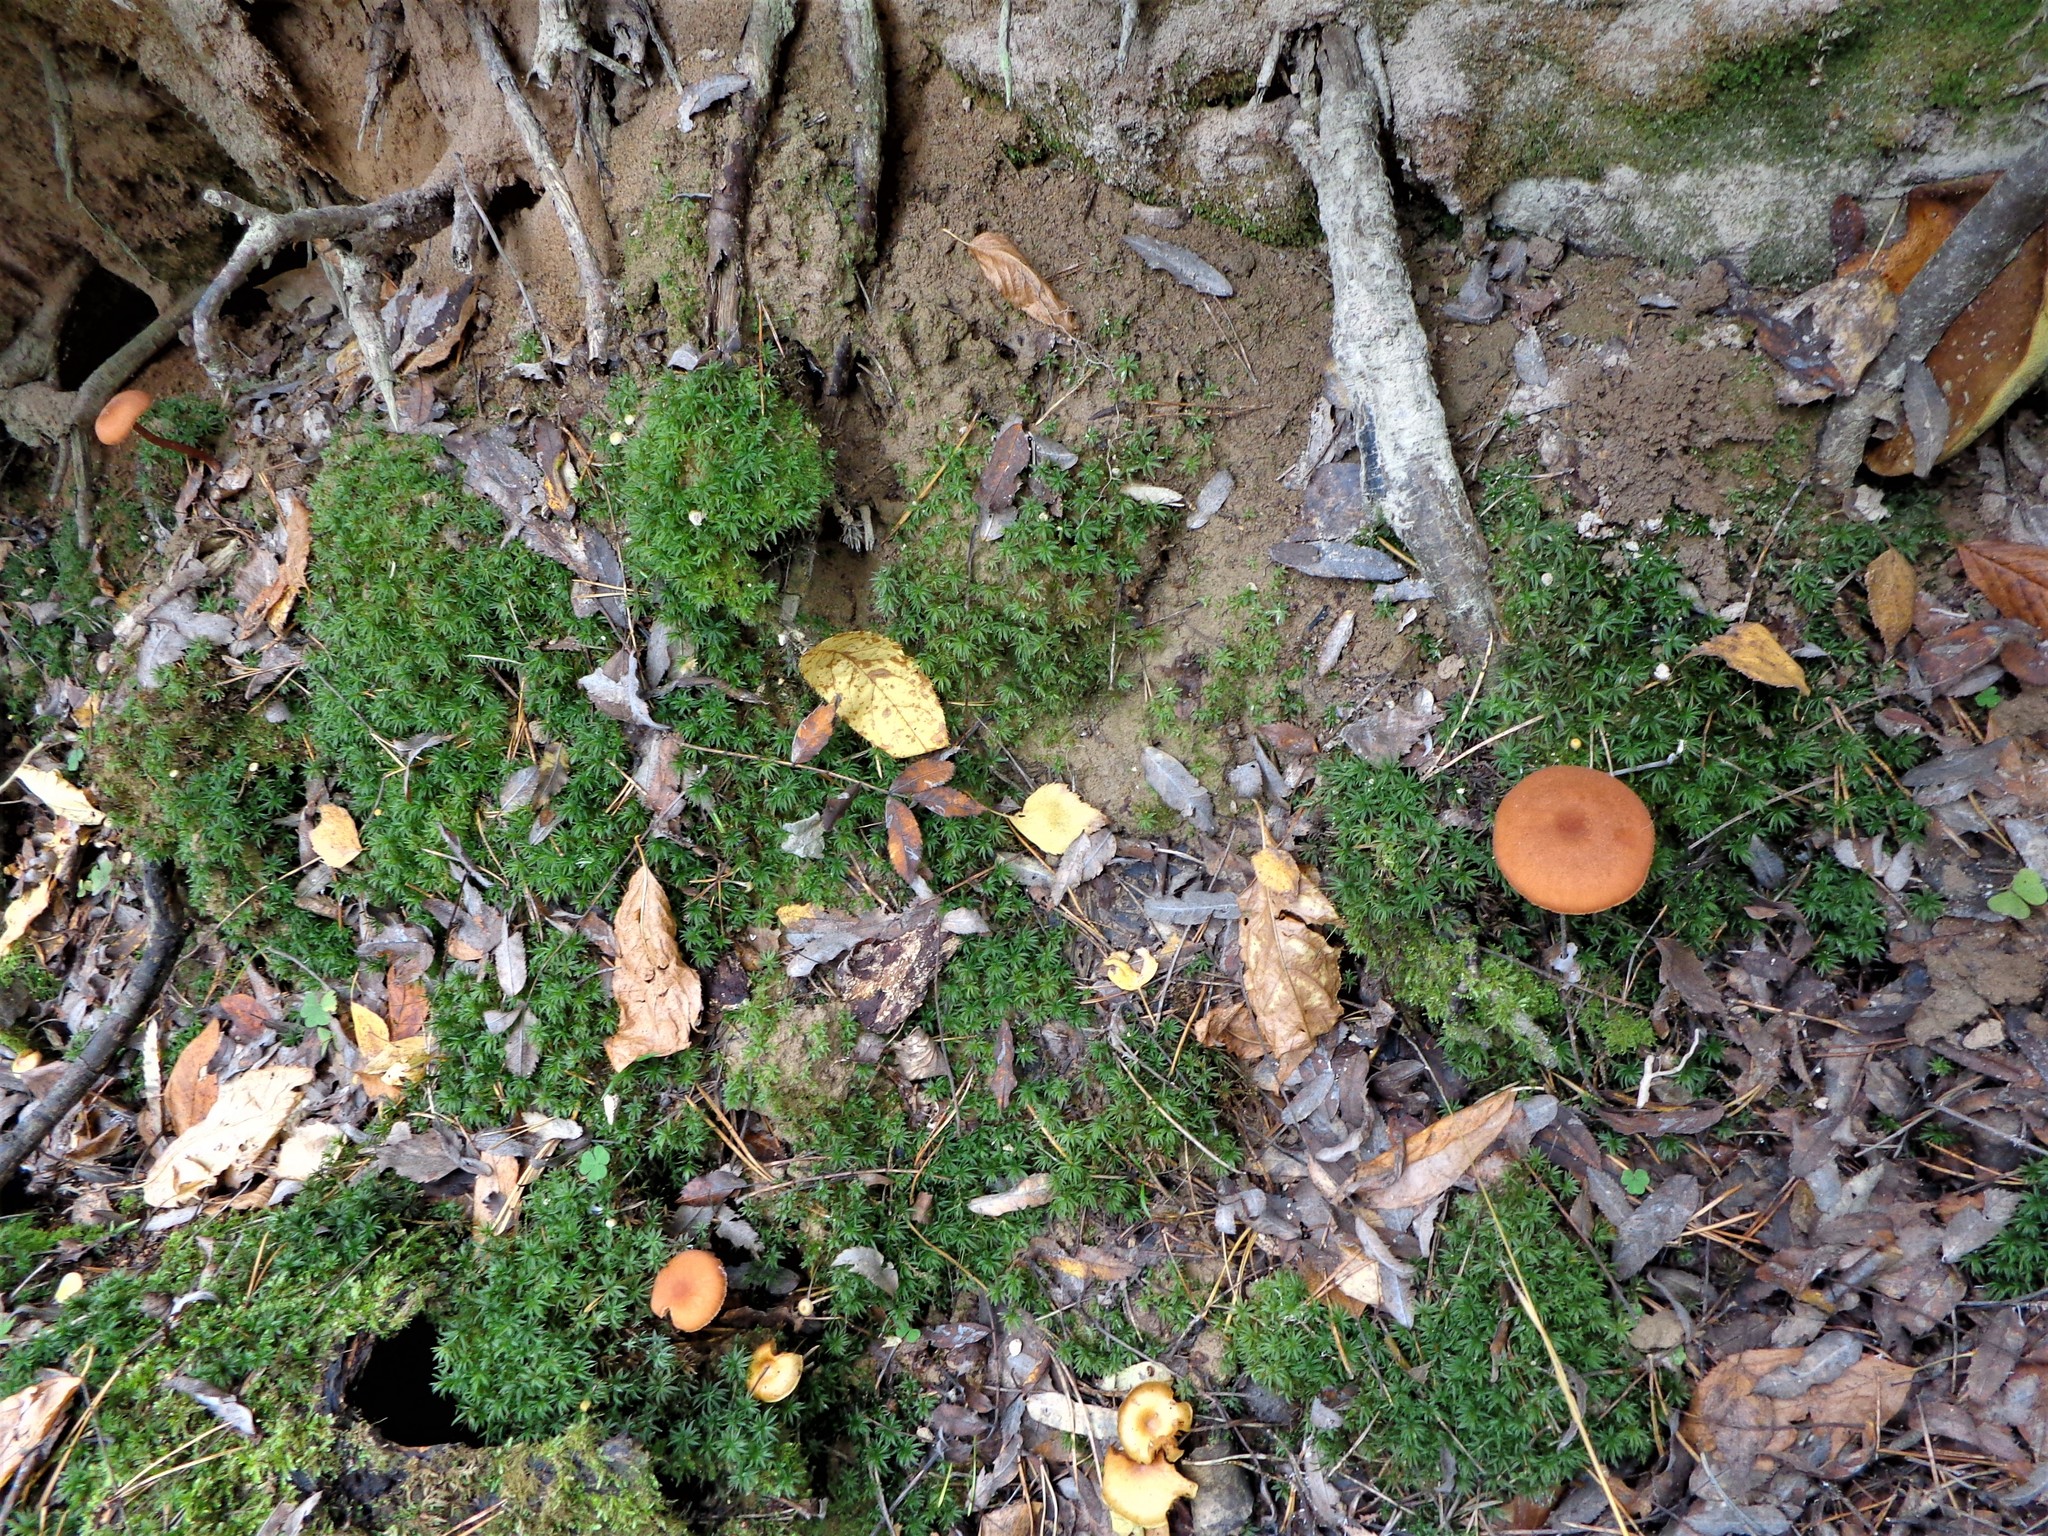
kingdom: Fungi
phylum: Basidiomycota
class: Agaricomycetes
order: Agaricales
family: Hydnangiaceae
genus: Laccaria
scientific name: Laccaria proxima
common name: Scurfy deceiver
